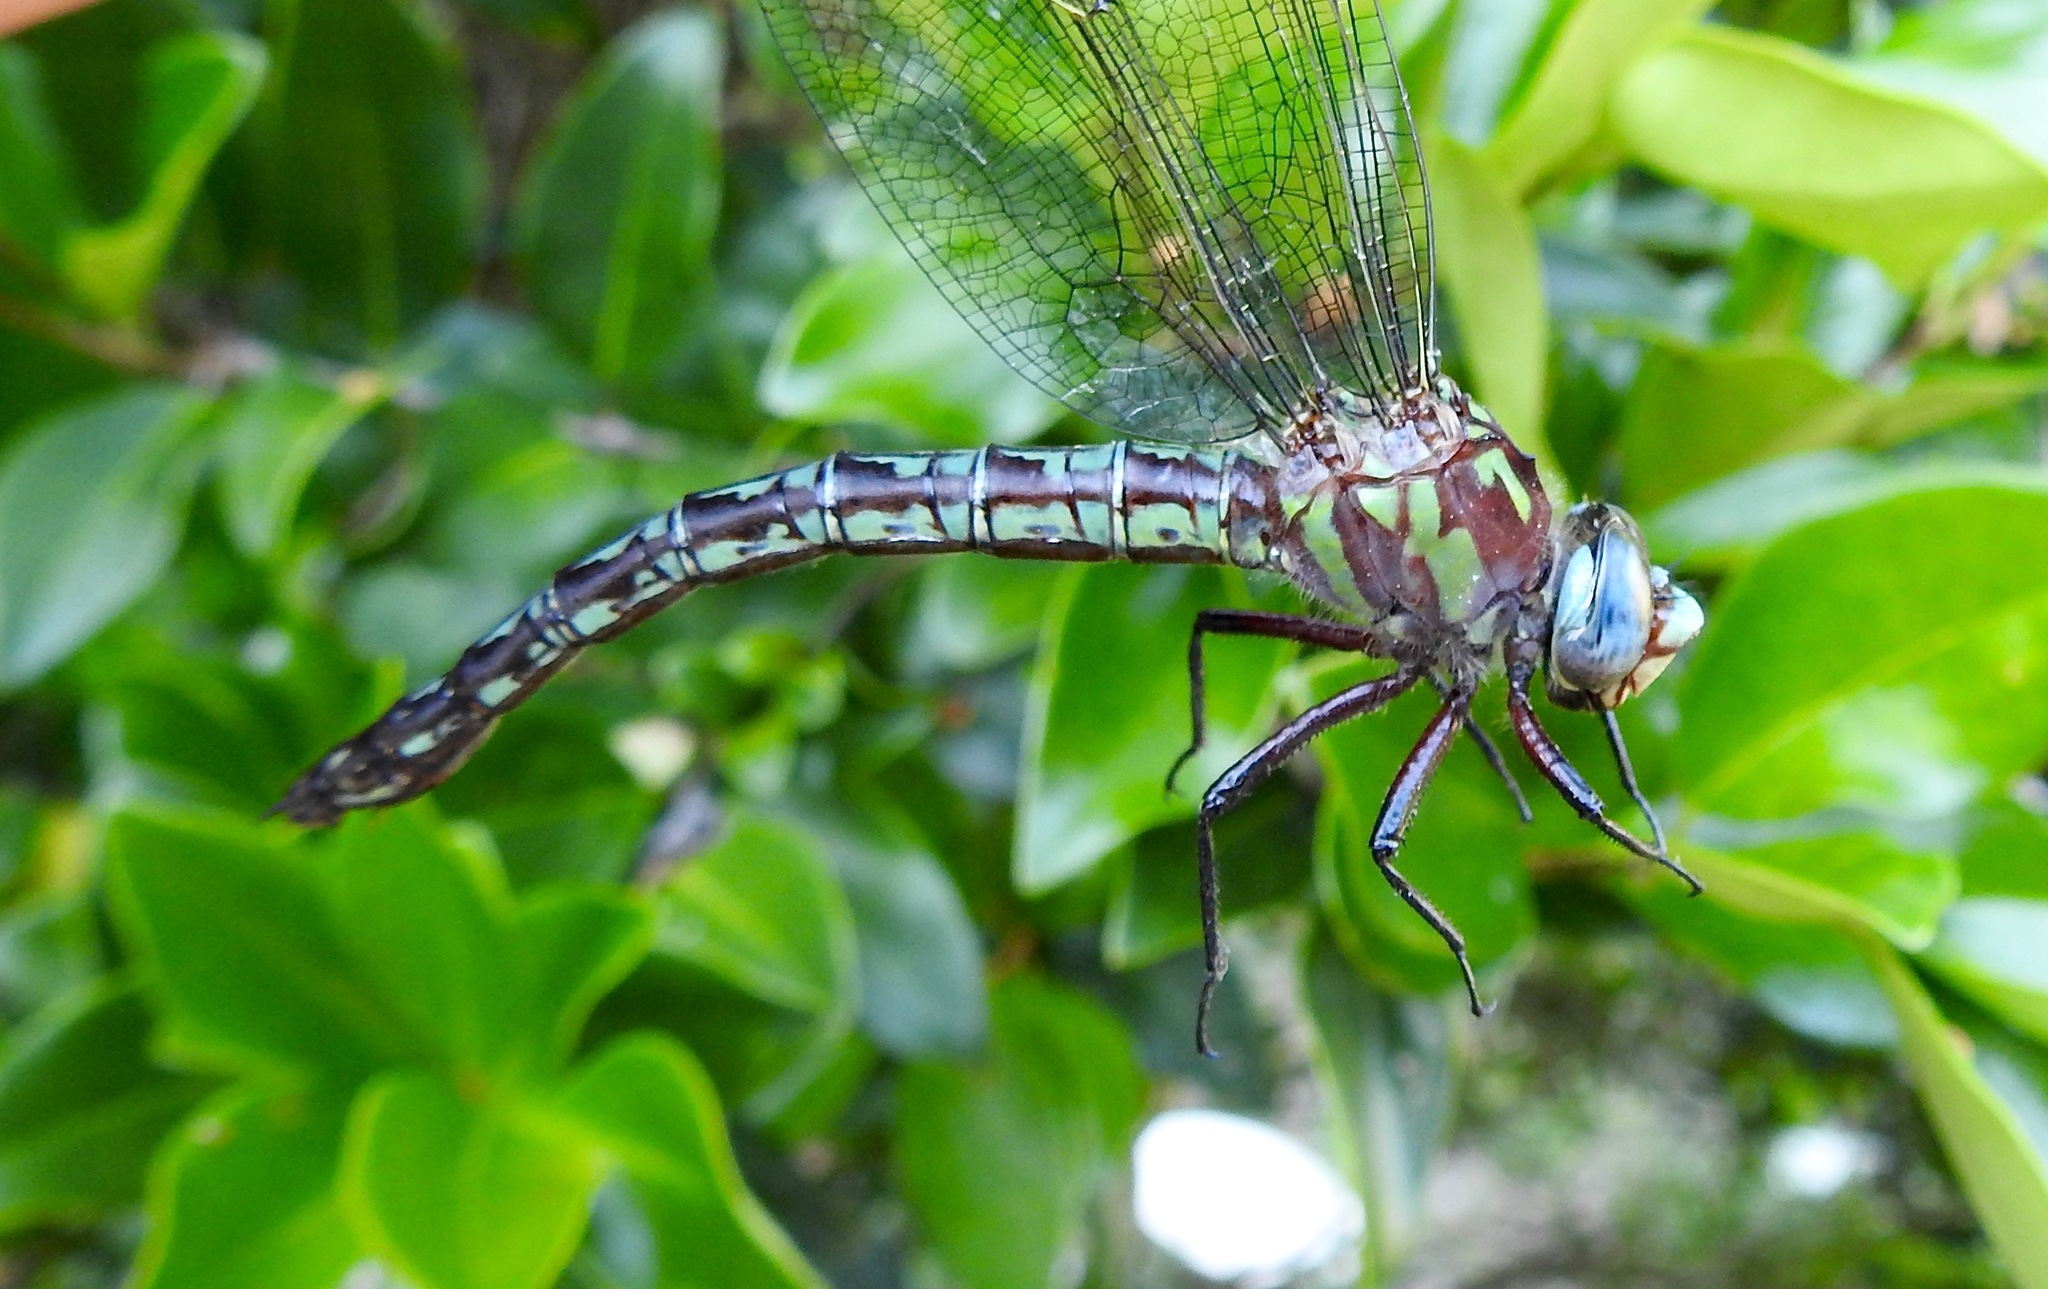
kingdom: Animalia
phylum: Arthropoda
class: Insecta
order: Odonata
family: Aeshnidae
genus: Nasiaeschna
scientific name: Nasiaeschna pentacantha
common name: Cyrano darner
